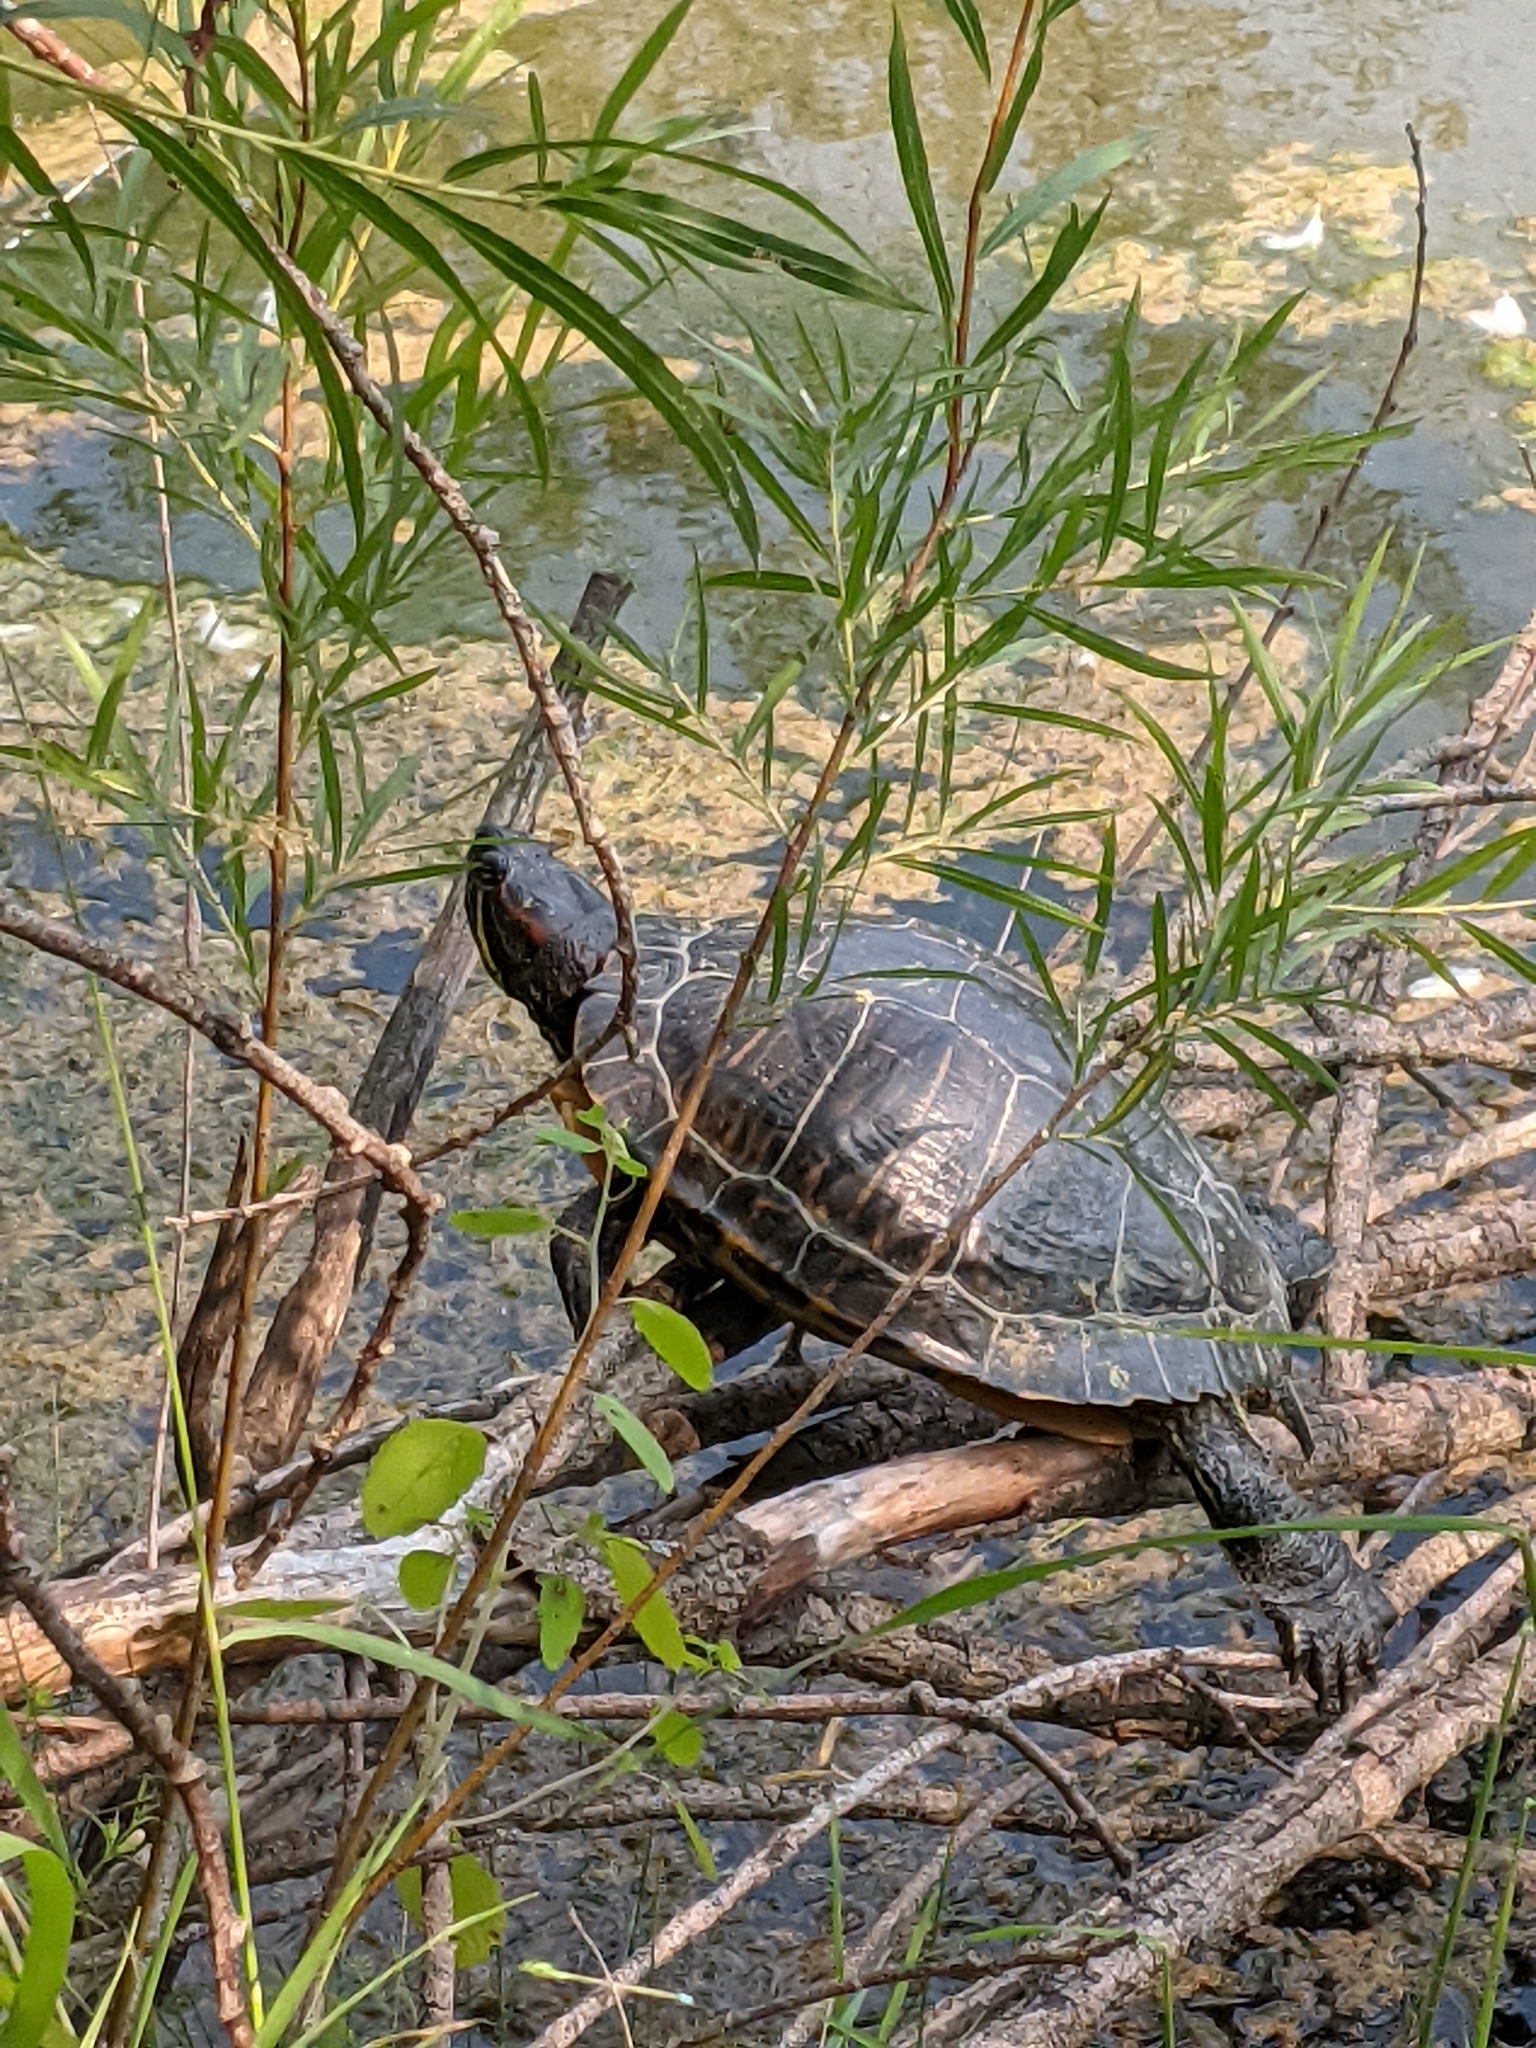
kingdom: Animalia
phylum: Chordata
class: Testudines
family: Emydidae
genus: Trachemys
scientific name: Trachemys scripta
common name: Slider
